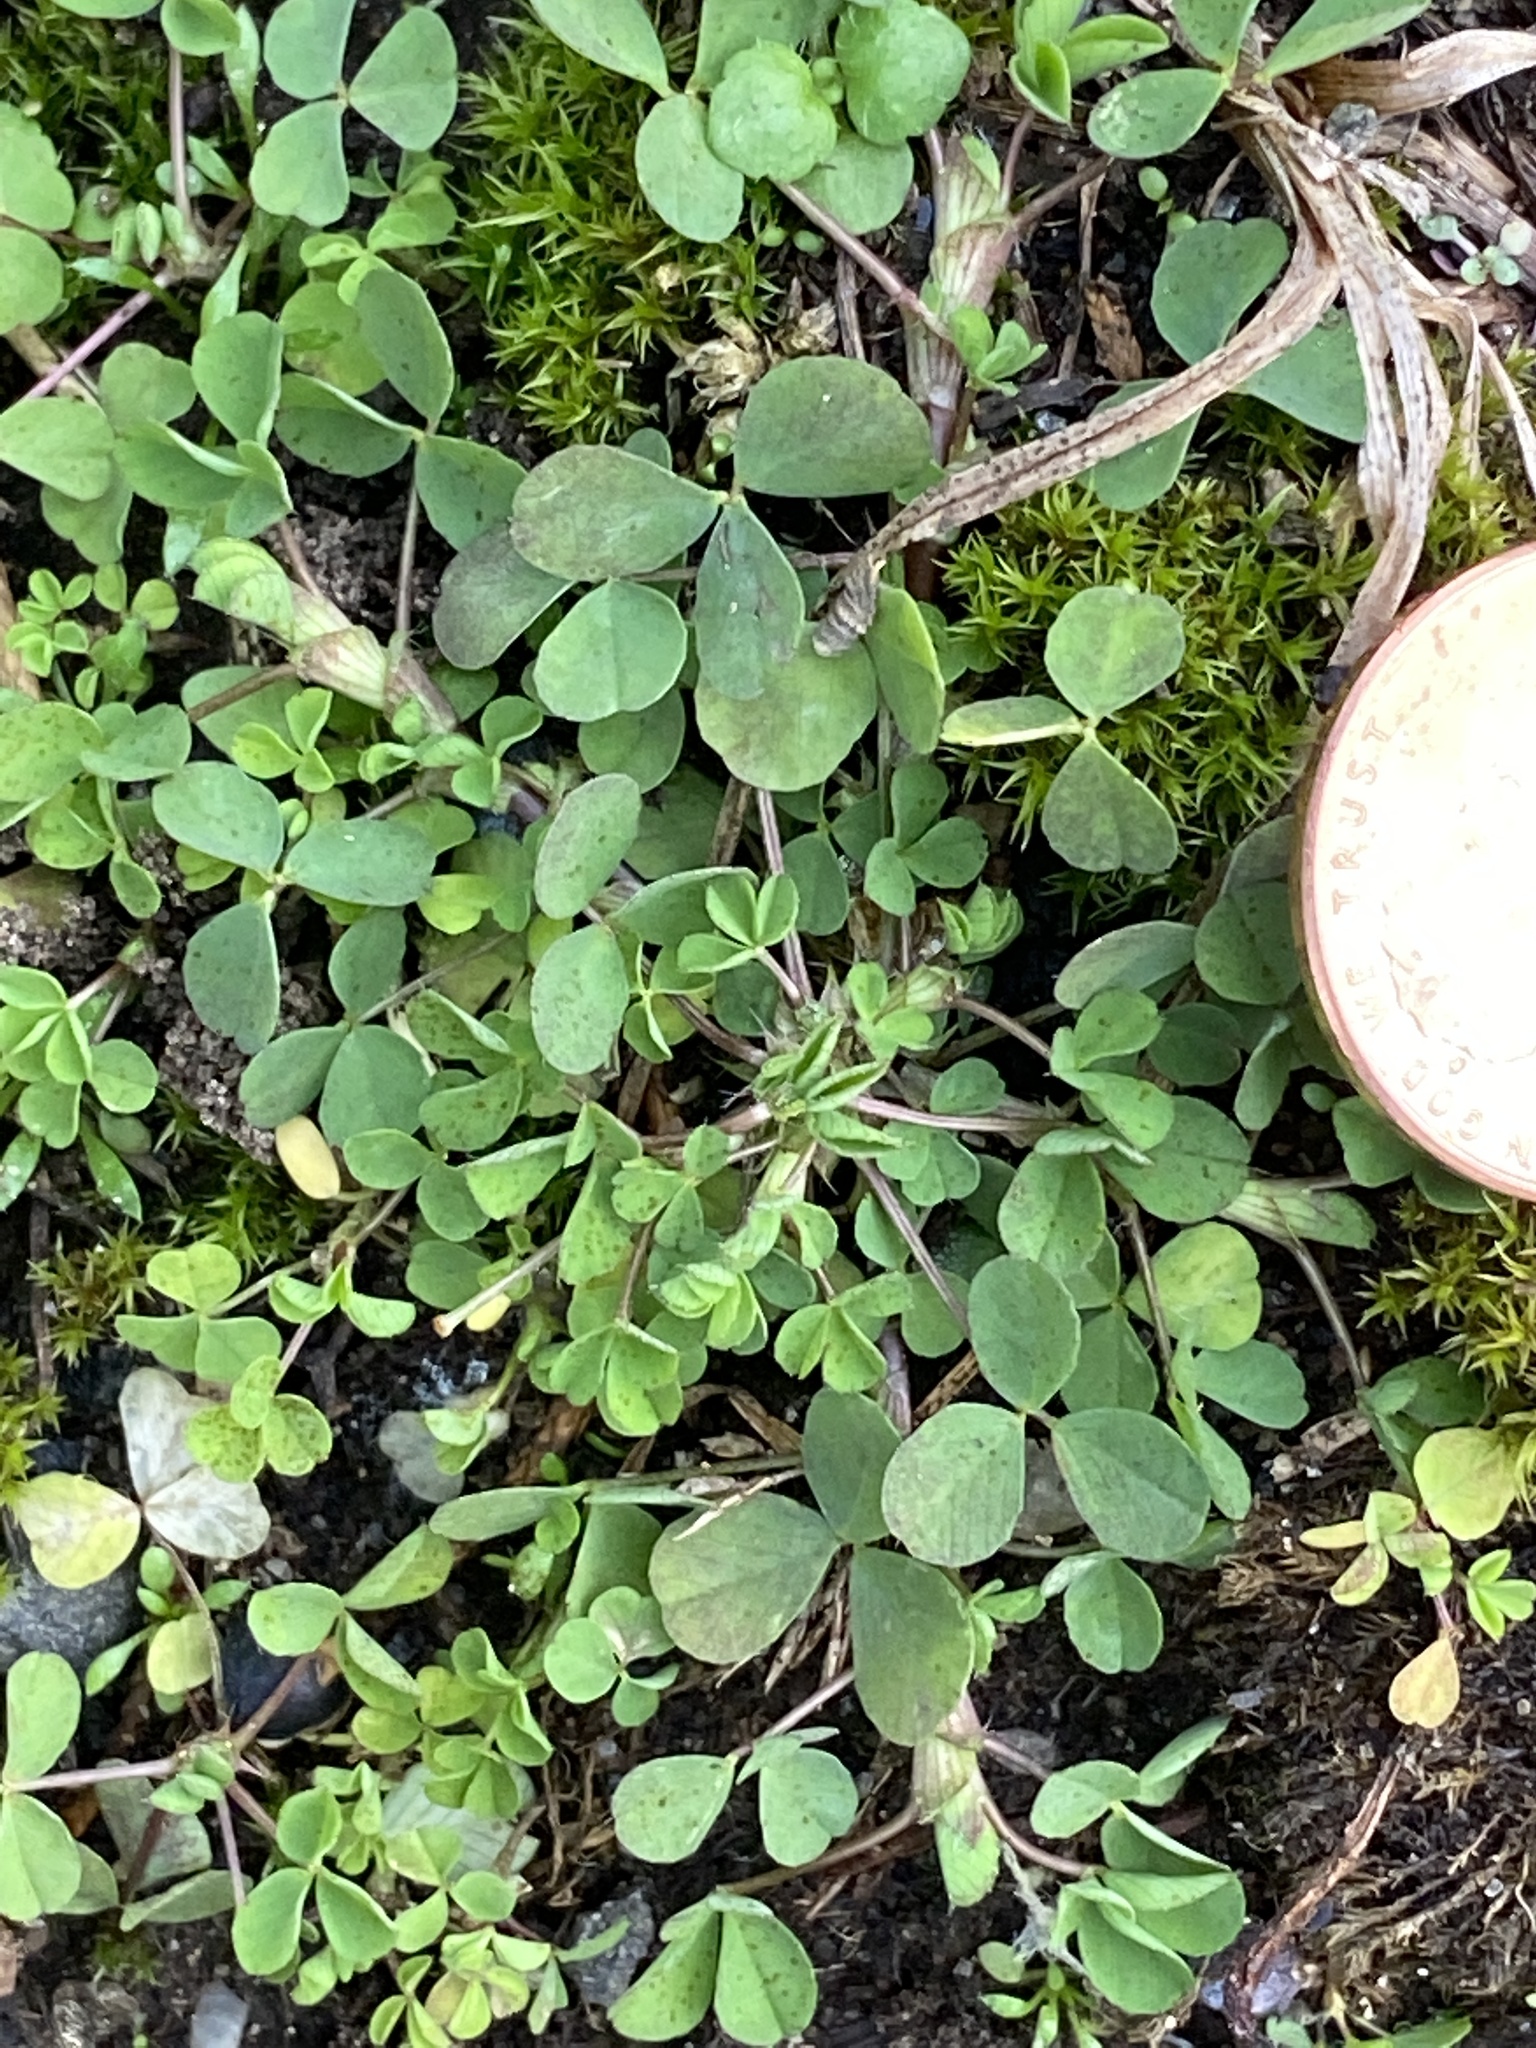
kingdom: Plantae
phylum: Tracheophyta
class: Magnoliopsida
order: Fabales
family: Fabaceae
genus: Medicago
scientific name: Medicago lupulina
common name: Black medick
